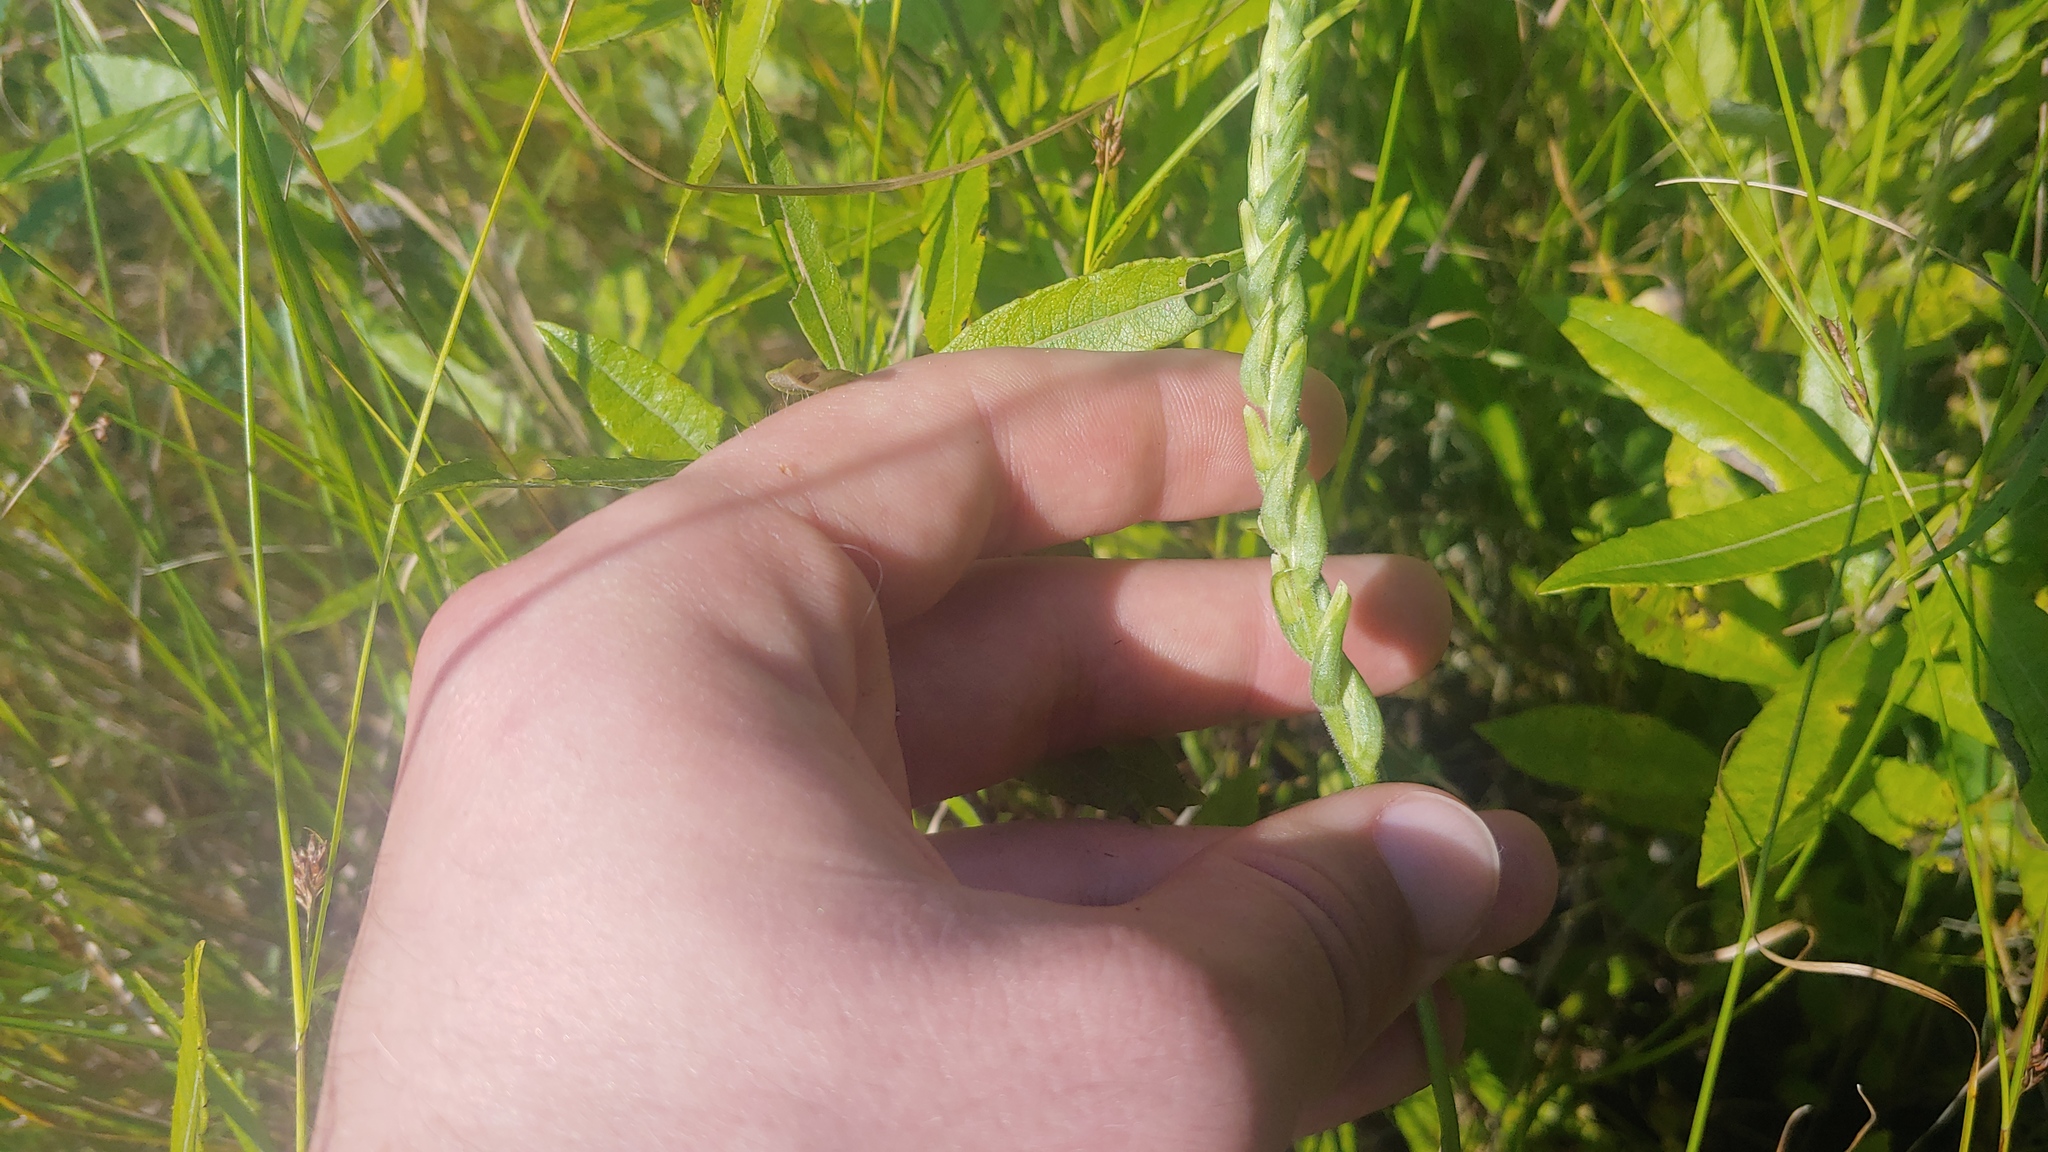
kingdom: Plantae
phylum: Tracheophyta
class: Liliopsida
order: Asparagales
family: Orchidaceae
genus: Spiranthes
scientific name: Spiranthes incurva
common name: Sphinx ladies'-tresses
